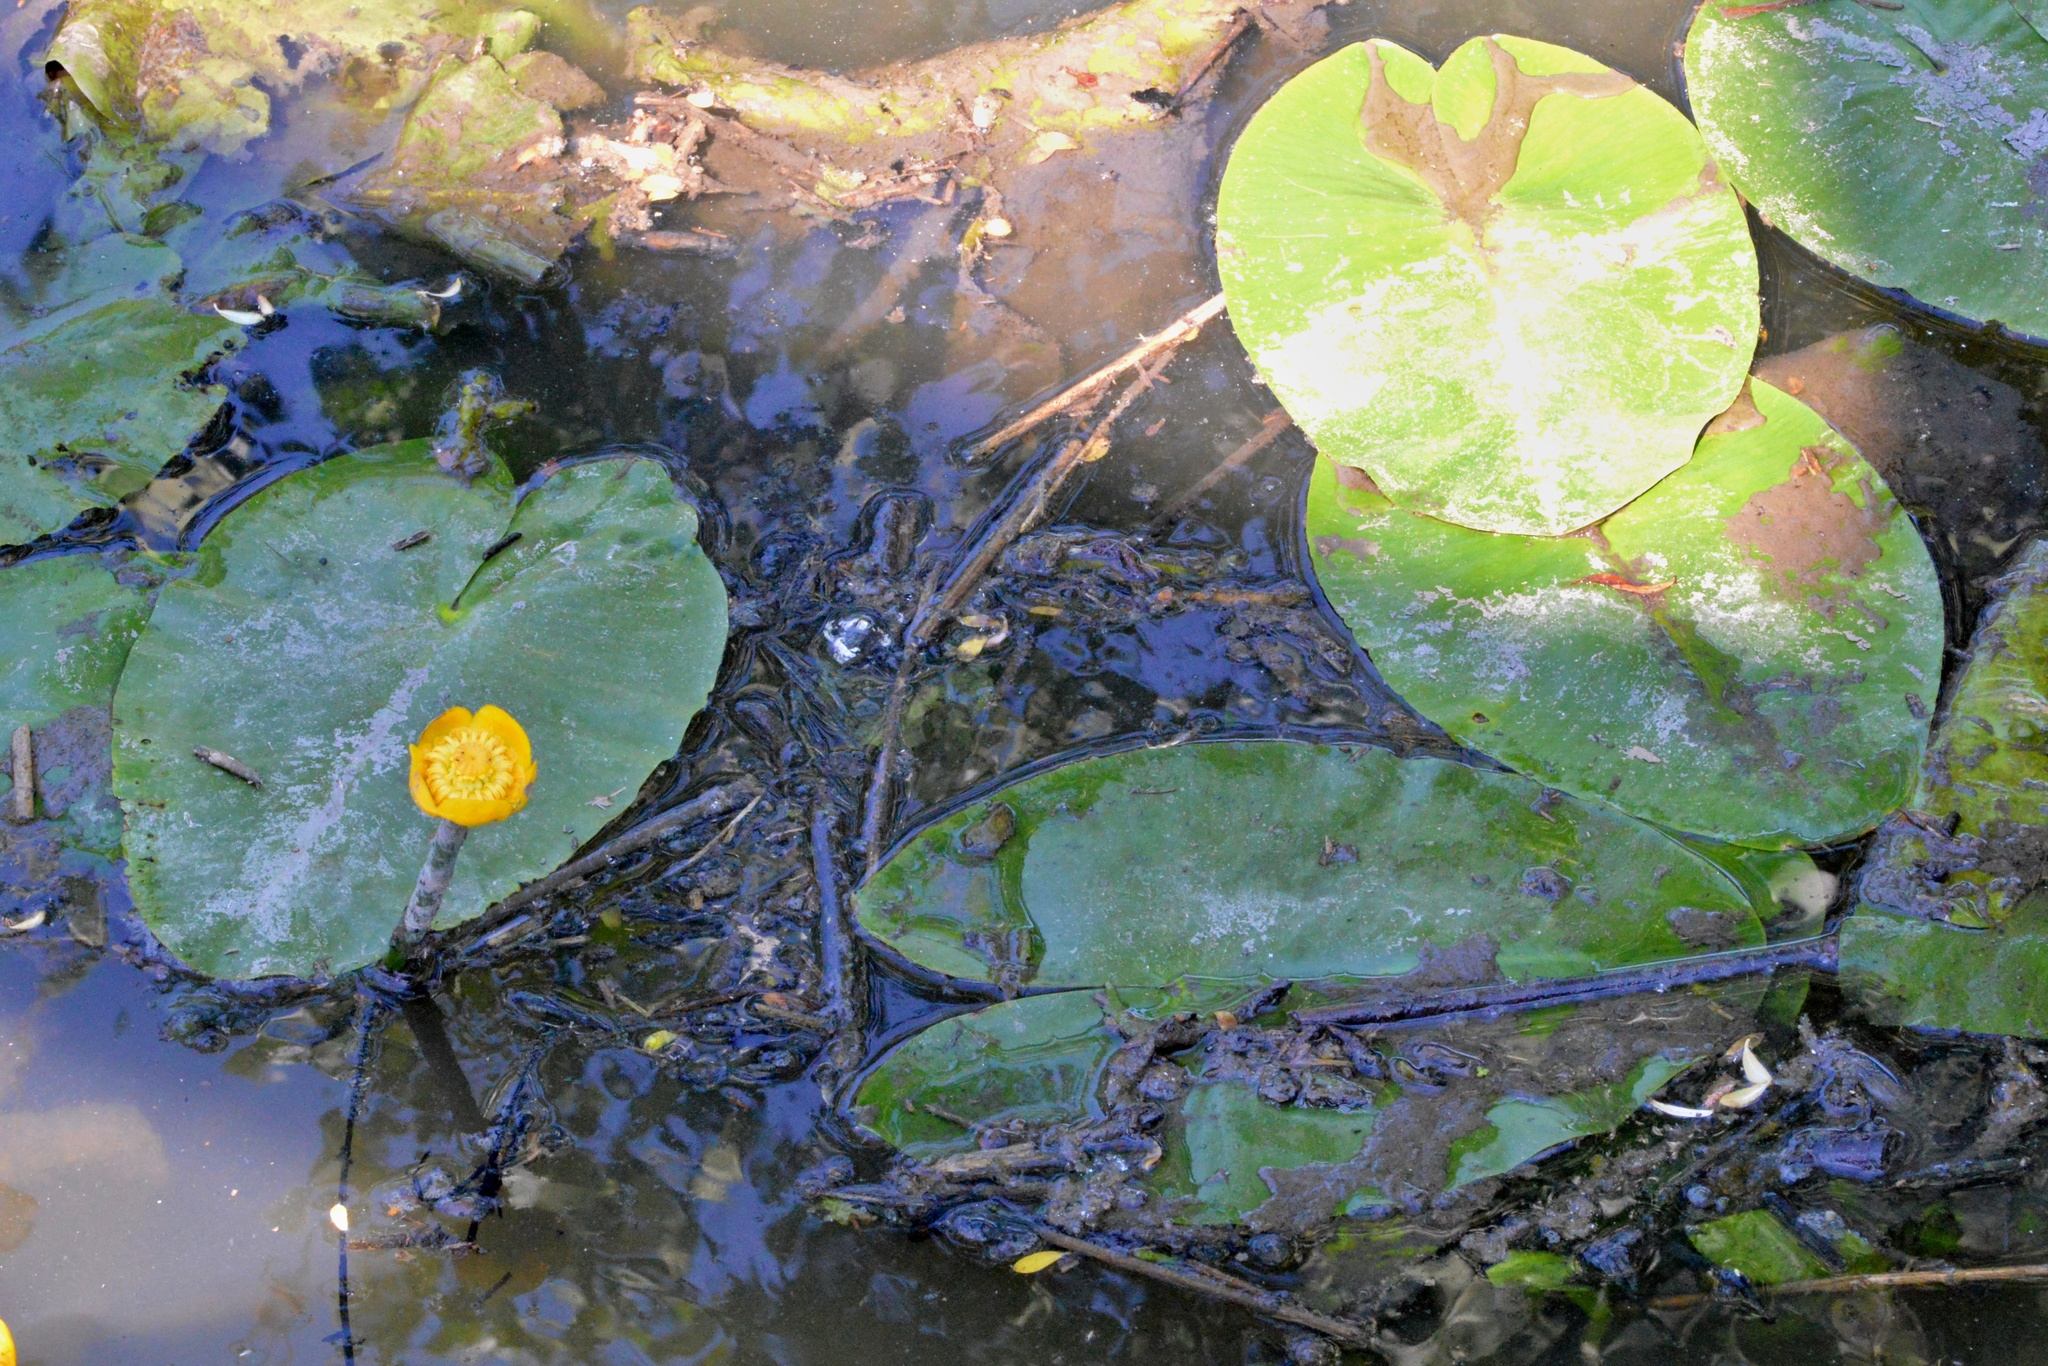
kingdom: Plantae
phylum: Tracheophyta
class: Magnoliopsida
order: Nymphaeales
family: Nymphaeaceae
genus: Nuphar
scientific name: Nuphar lutea
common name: Yellow water-lily
